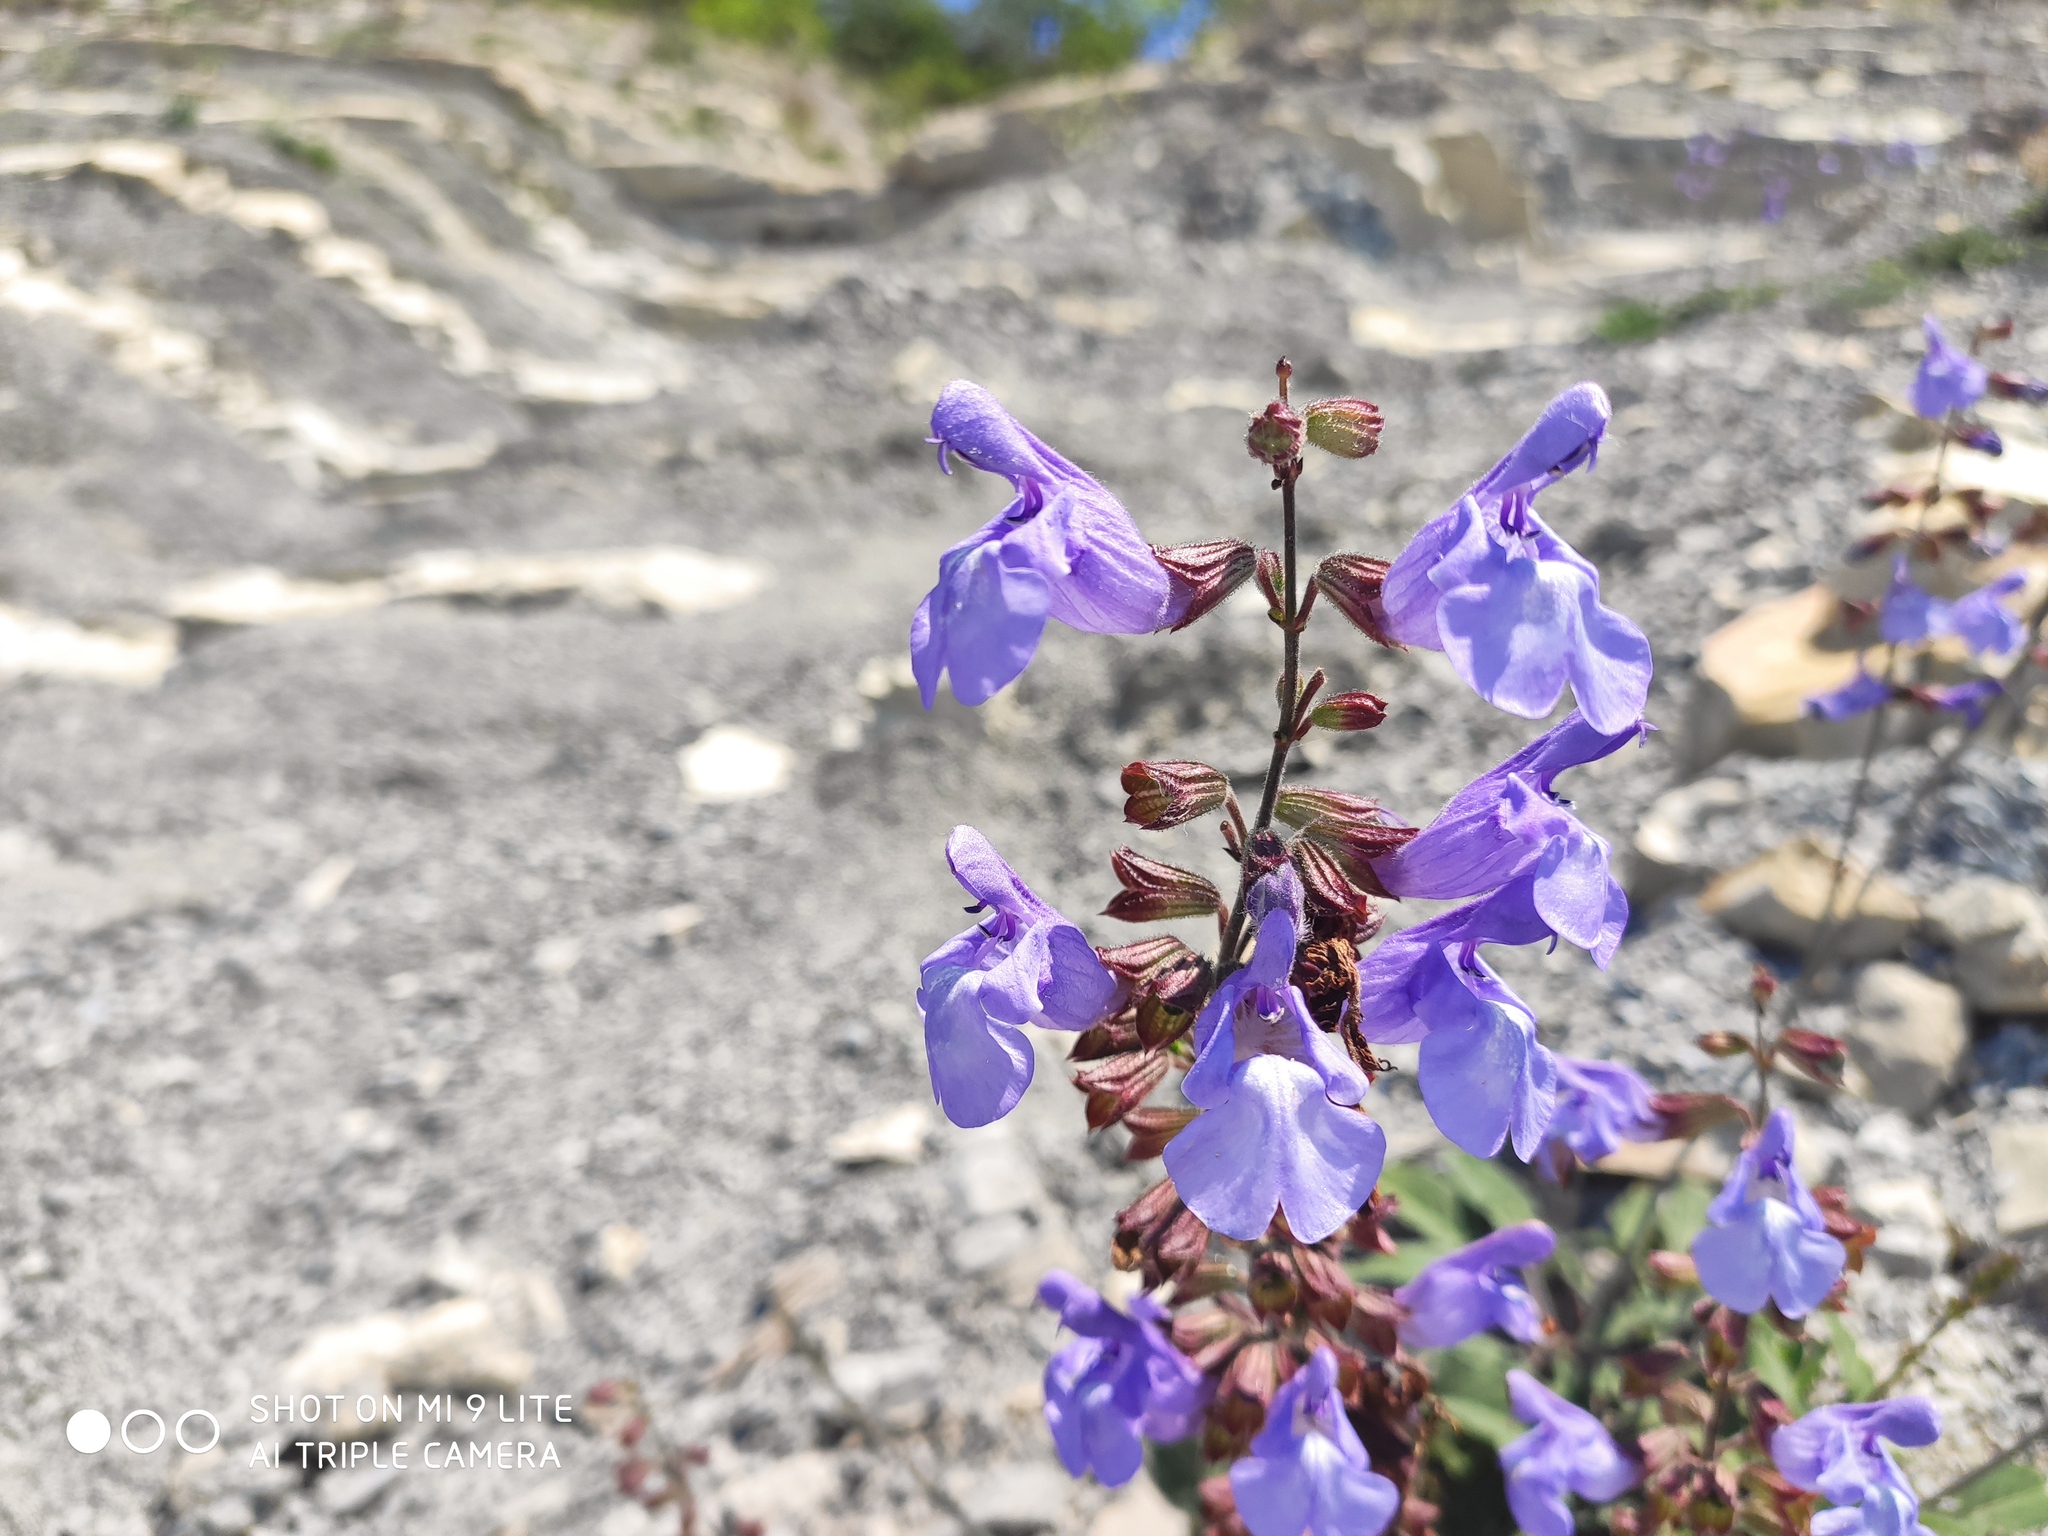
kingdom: Plantae
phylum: Tracheophyta
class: Magnoliopsida
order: Lamiales
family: Lamiaceae
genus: Salvia
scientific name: Salvia ringens
